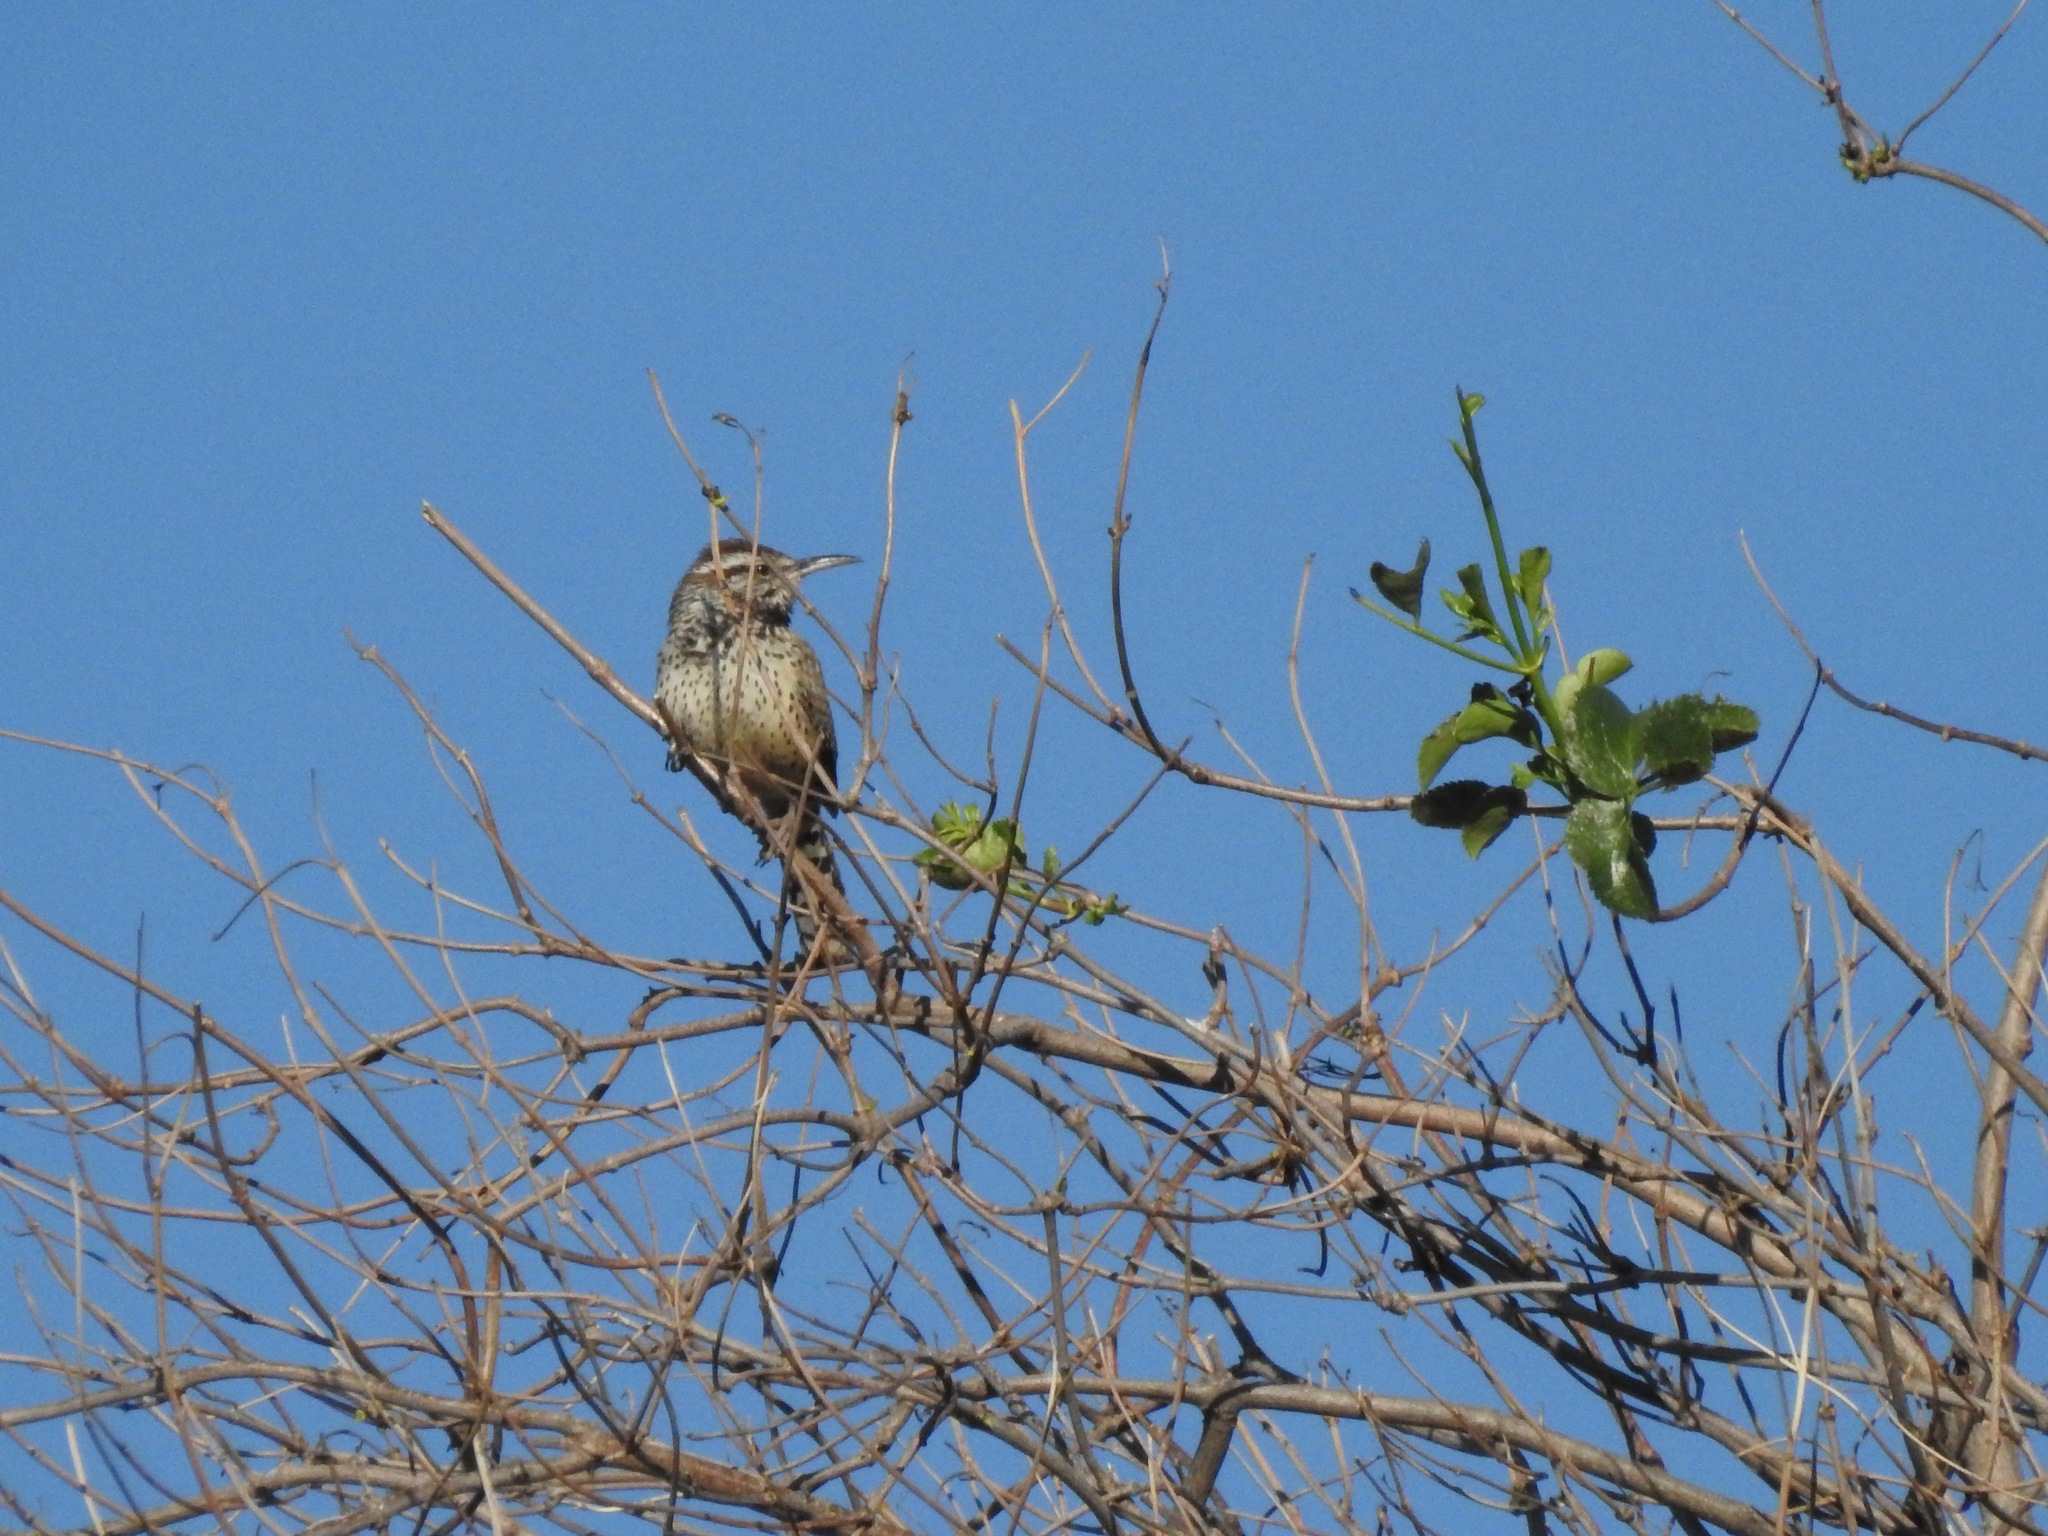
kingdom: Animalia
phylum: Chordata
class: Aves
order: Passeriformes
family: Troglodytidae
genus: Campylorhynchus
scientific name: Campylorhynchus brunneicapillus
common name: Cactus wren
